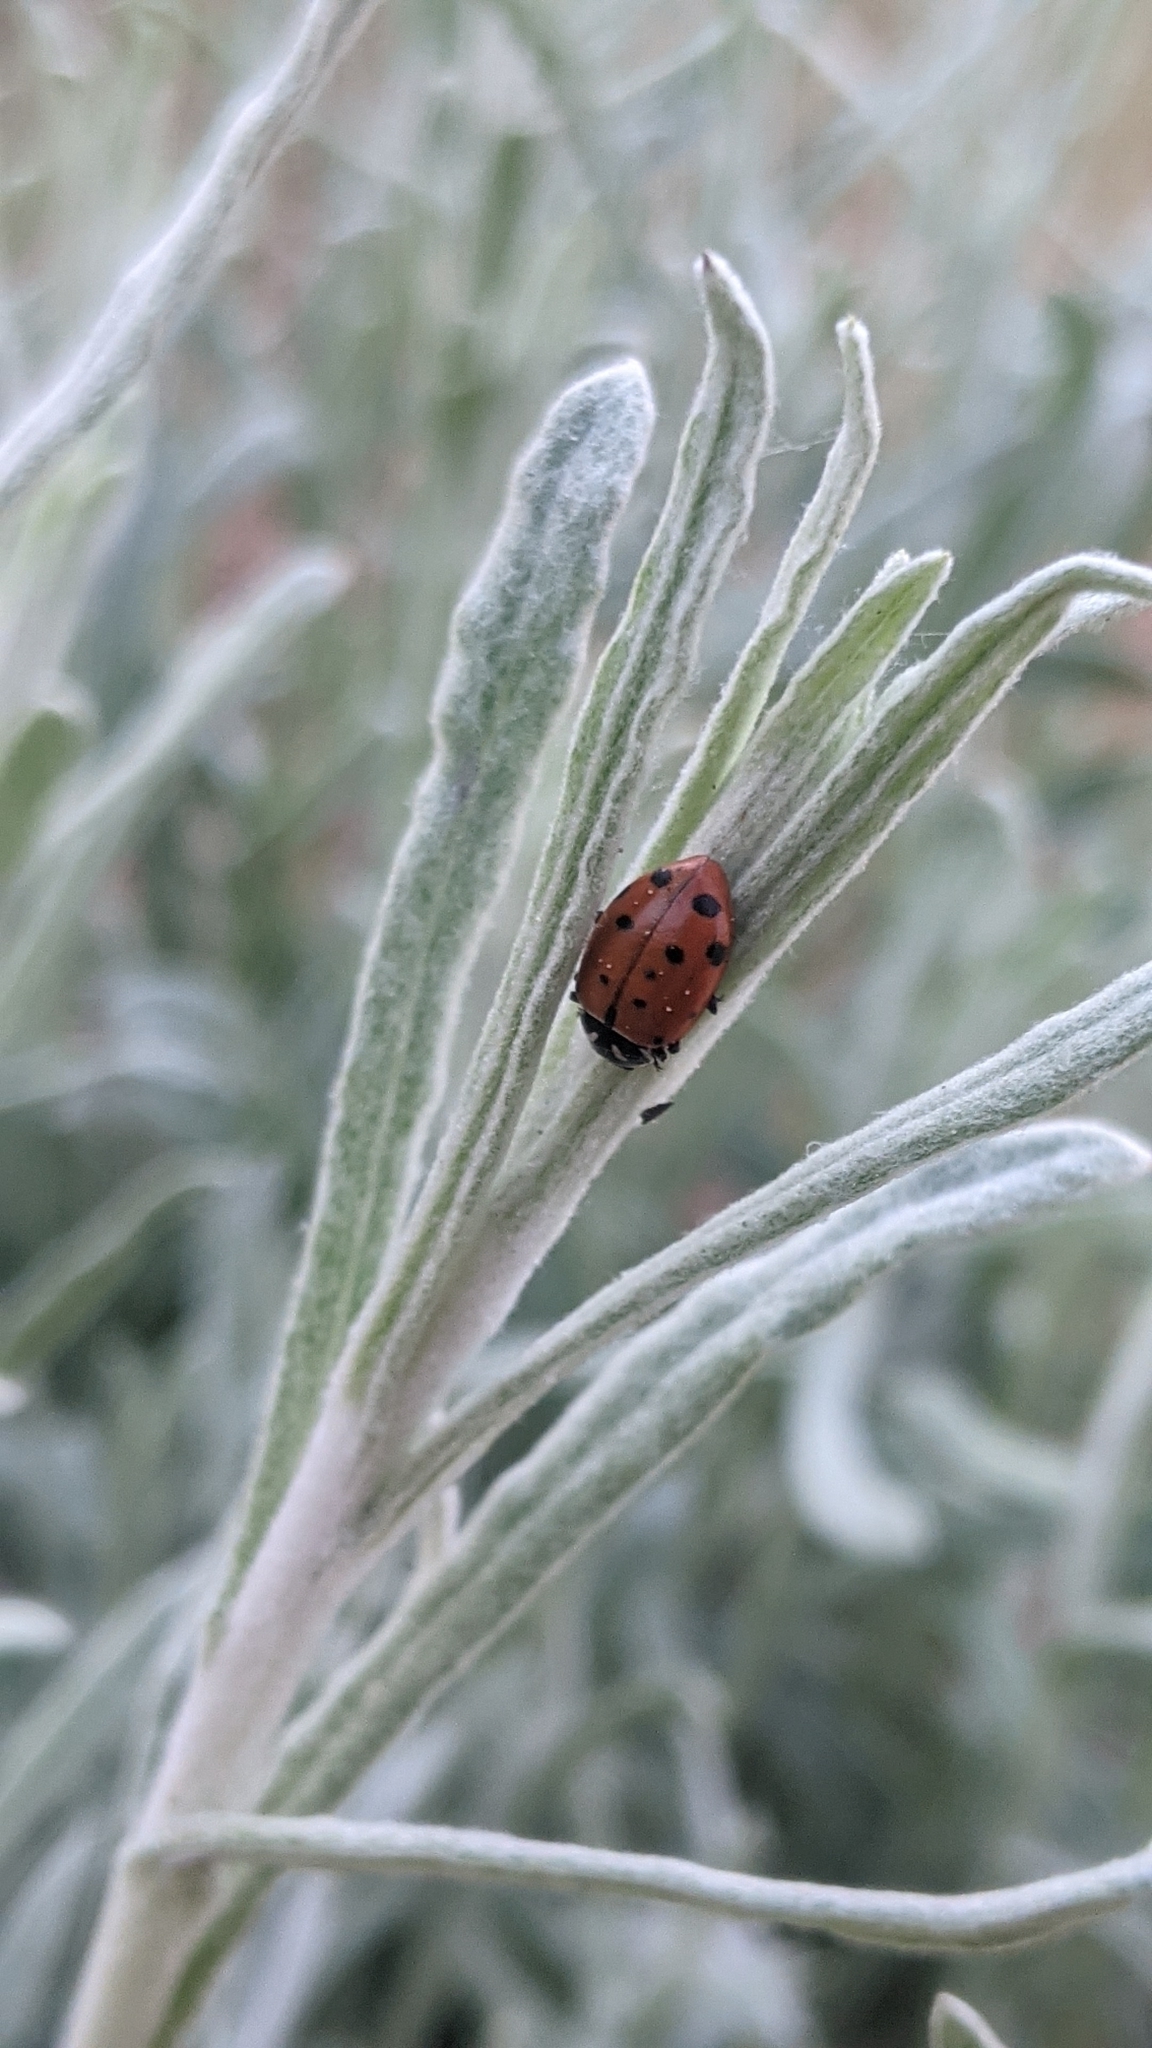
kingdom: Animalia
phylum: Arthropoda
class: Insecta
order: Coleoptera
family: Coccinellidae
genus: Hippodamia
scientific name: Hippodamia convergens
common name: Convergent lady beetle
